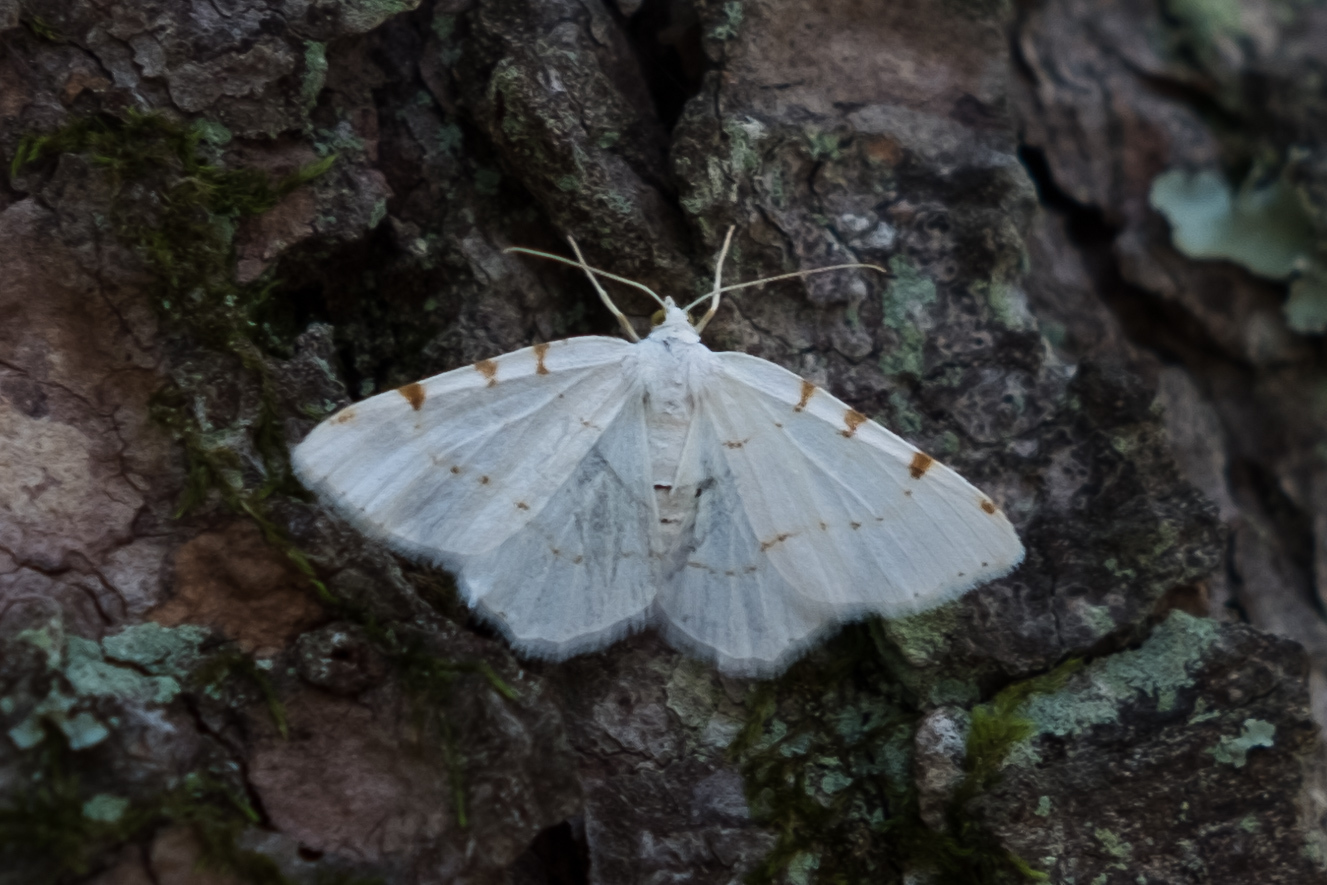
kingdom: Animalia
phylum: Arthropoda
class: Insecta
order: Lepidoptera
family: Geometridae
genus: Macaria
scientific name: Macaria pustularia
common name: Lesser maple spanworm moth
